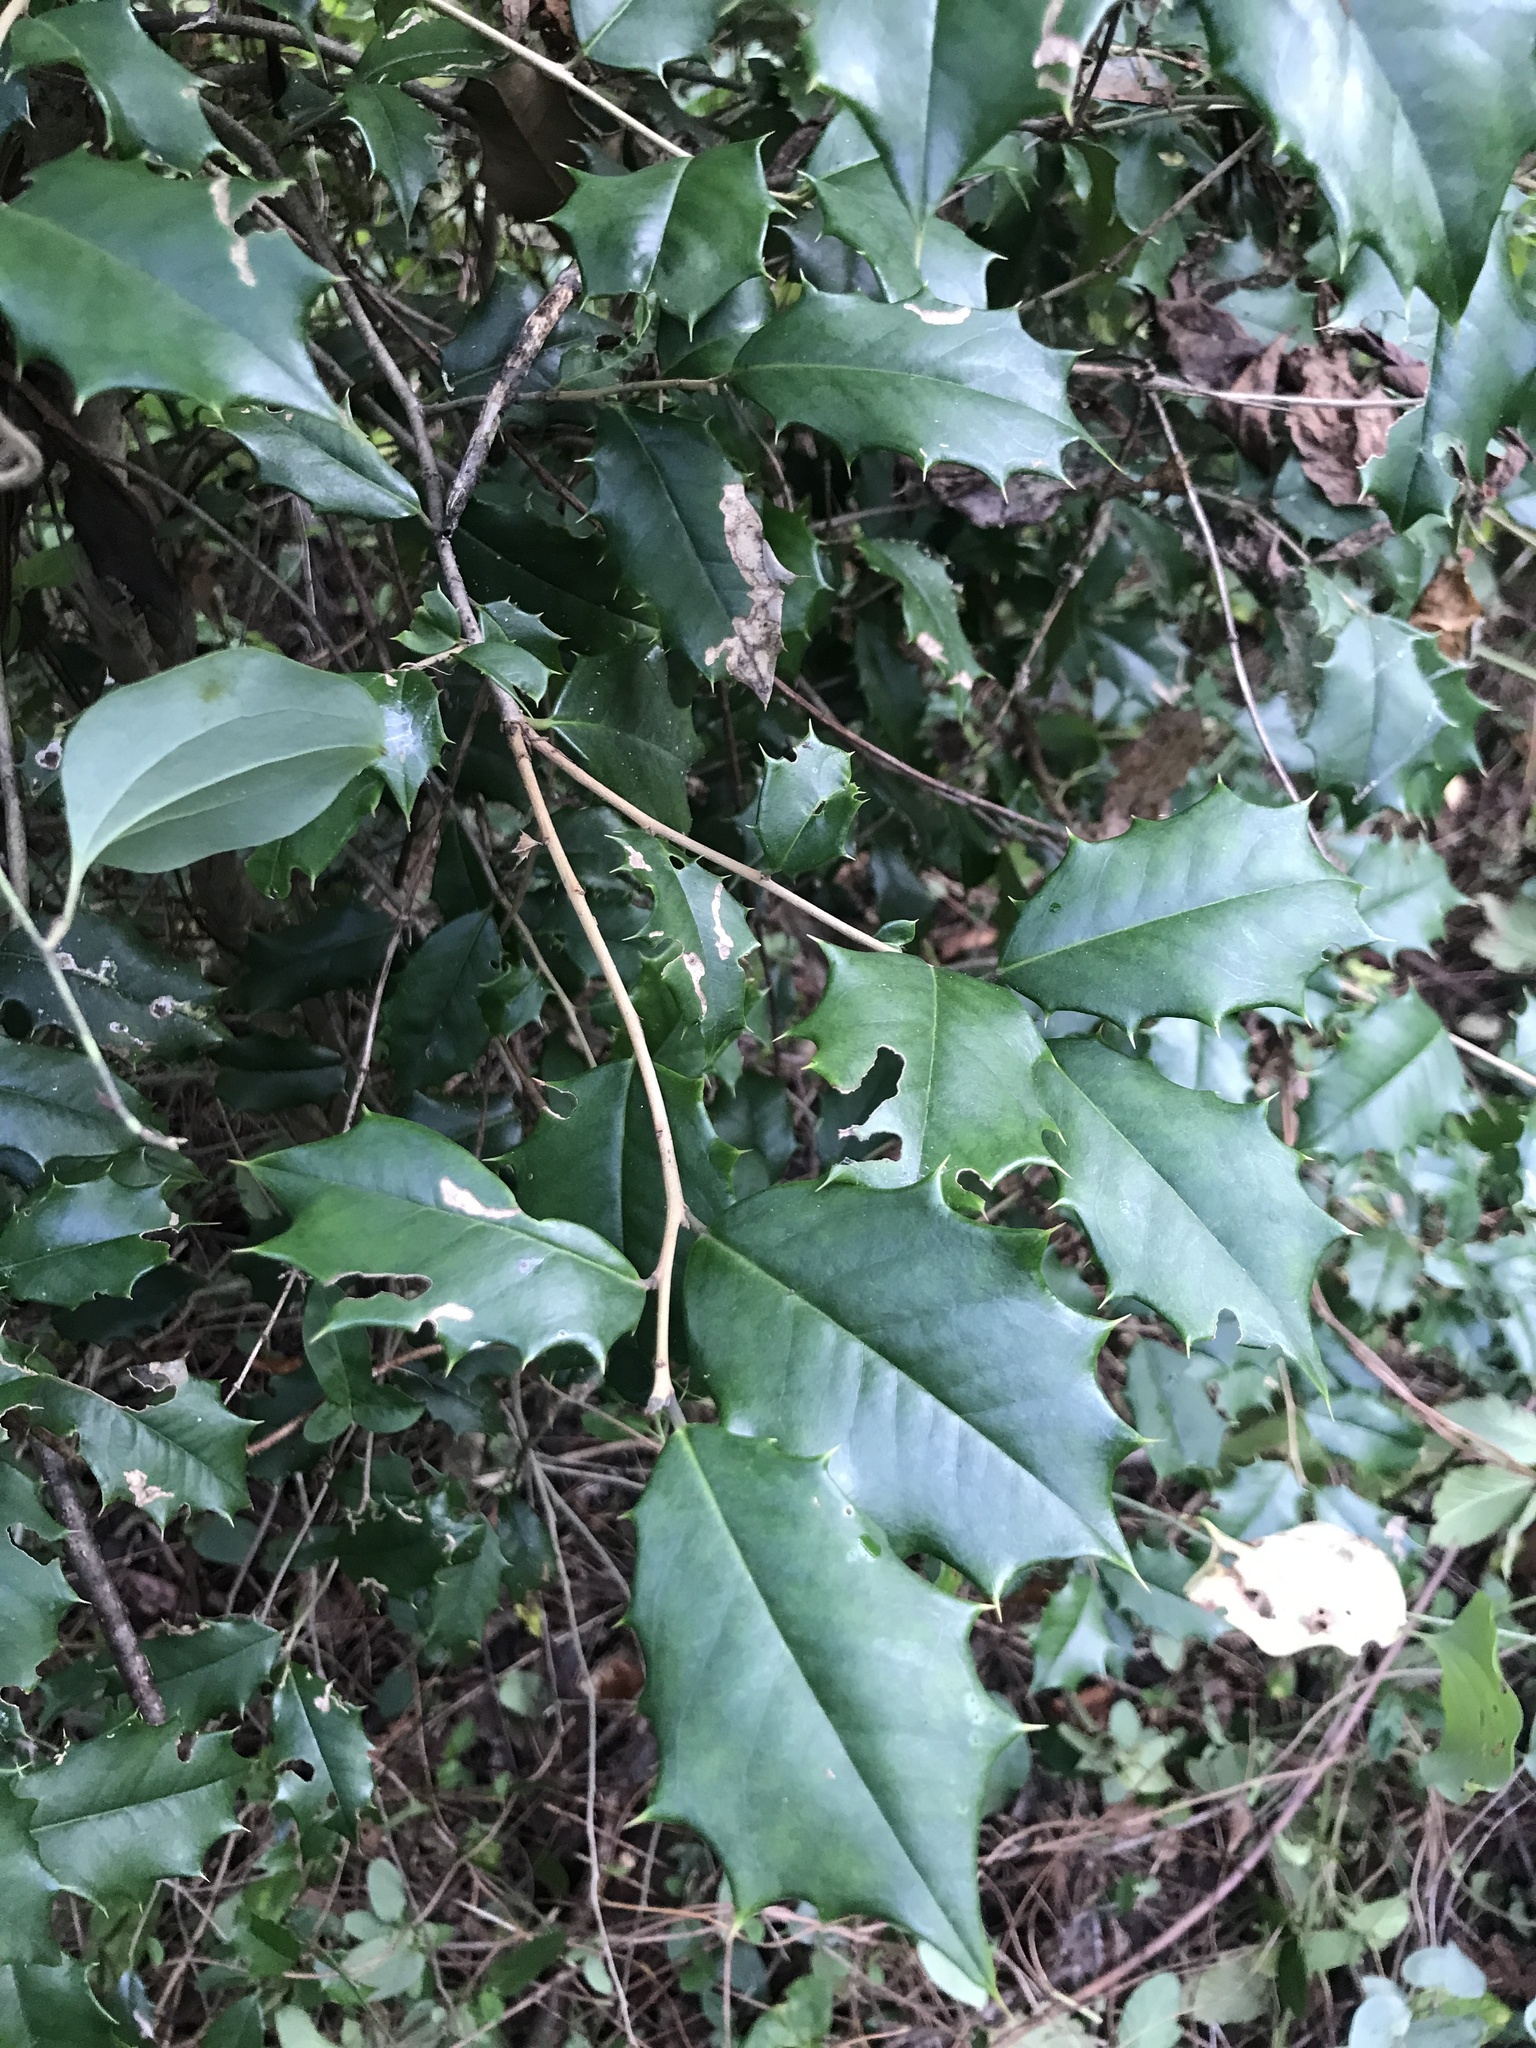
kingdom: Plantae
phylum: Tracheophyta
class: Magnoliopsida
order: Aquifoliales
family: Aquifoliaceae
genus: Ilex
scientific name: Ilex opaca
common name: American holly
